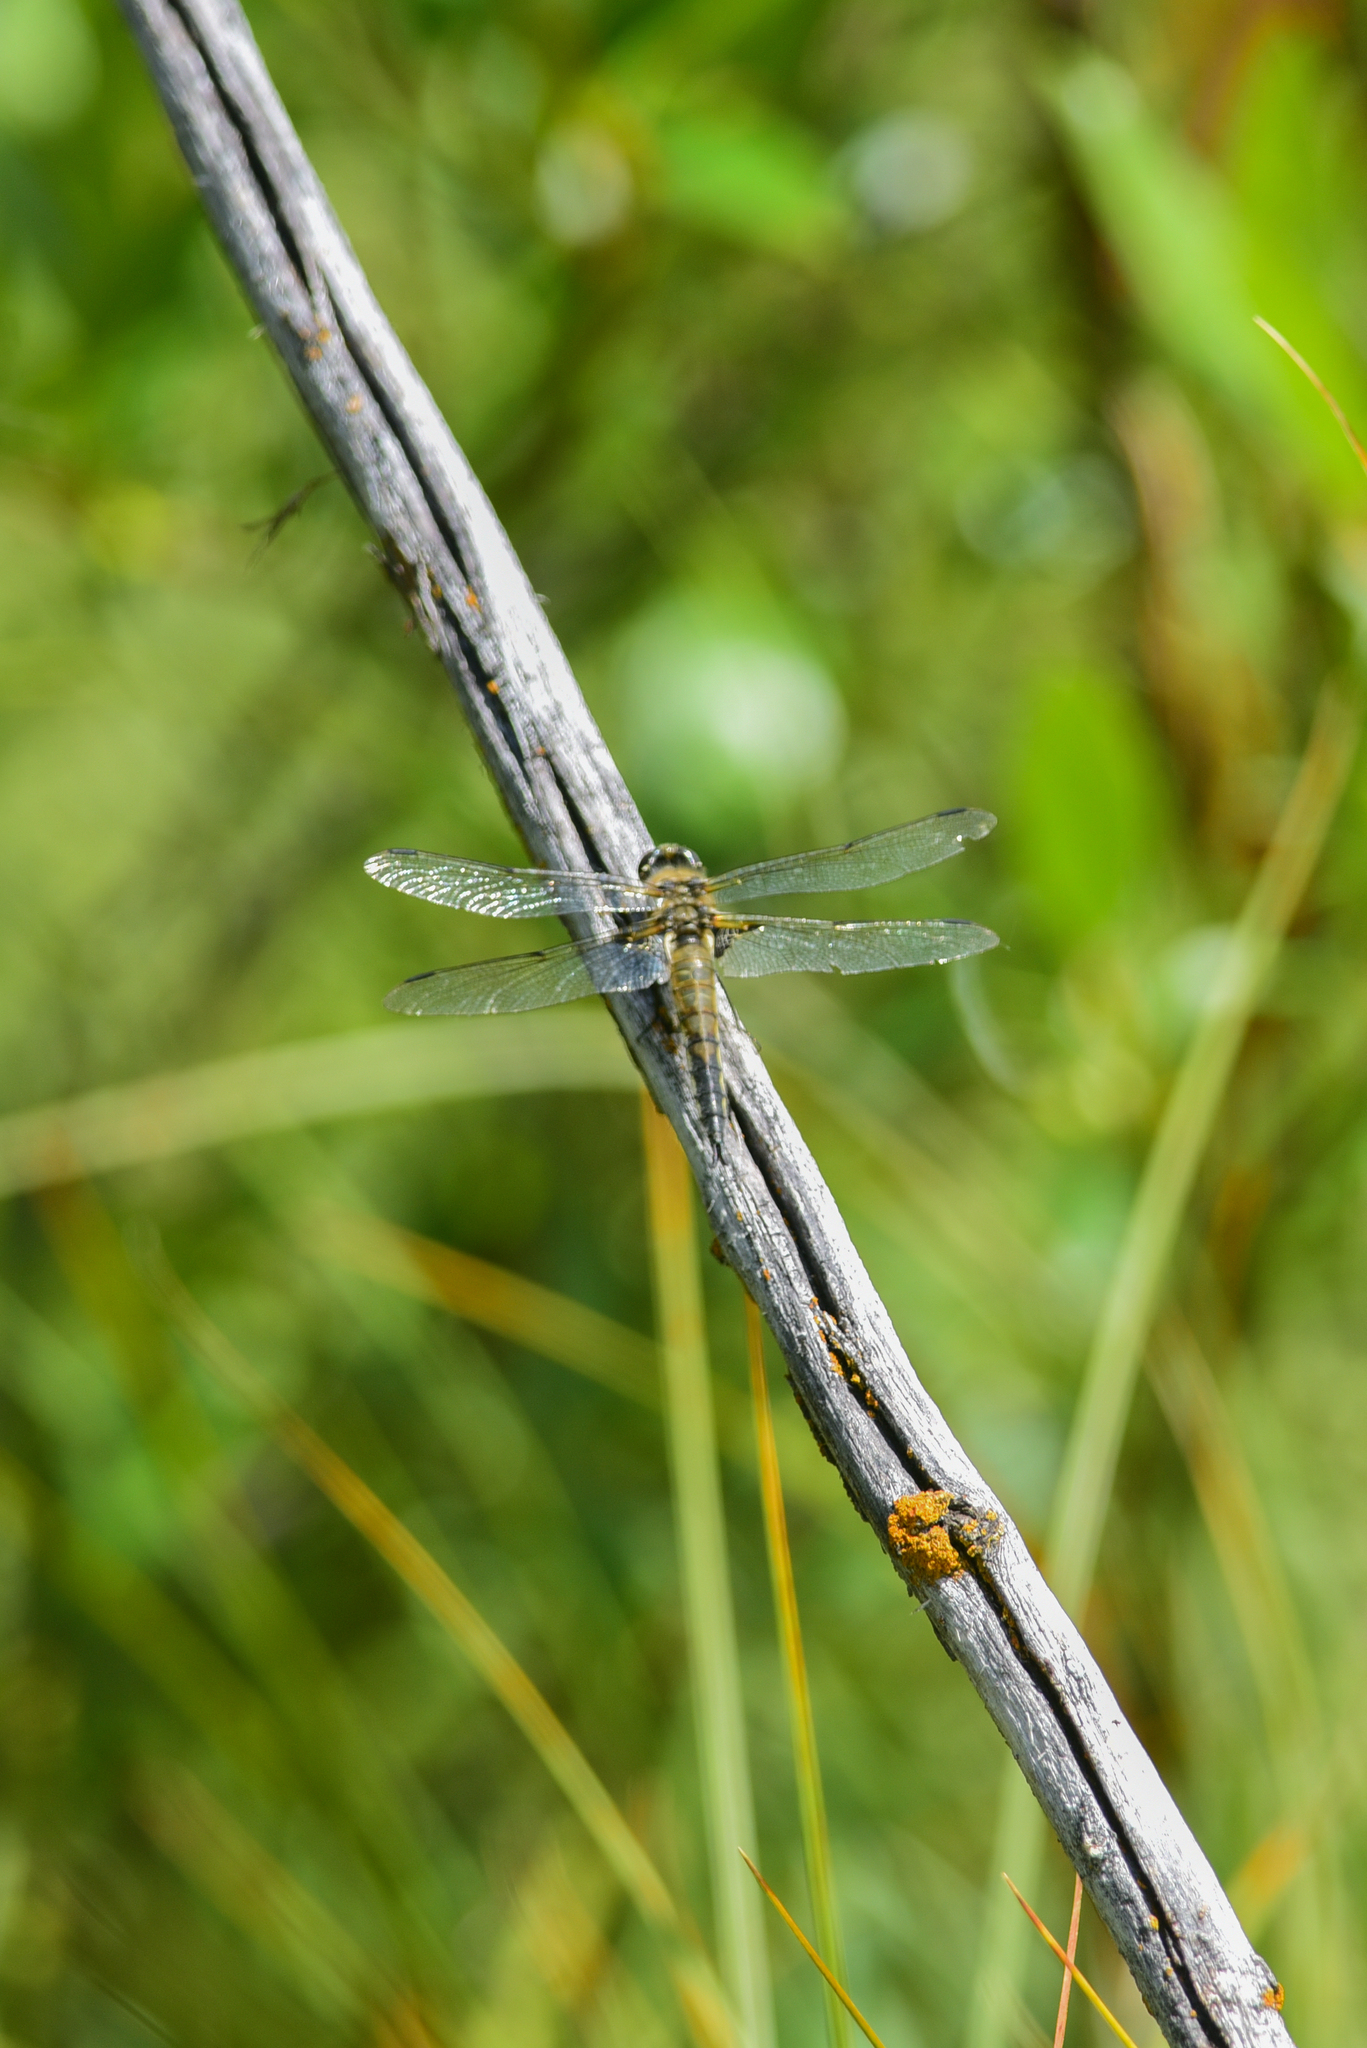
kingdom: Animalia
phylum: Arthropoda
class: Insecta
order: Odonata
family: Libellulidae
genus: Libellula
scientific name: Libellula quadrimaculata
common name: Four-spotted chaser
